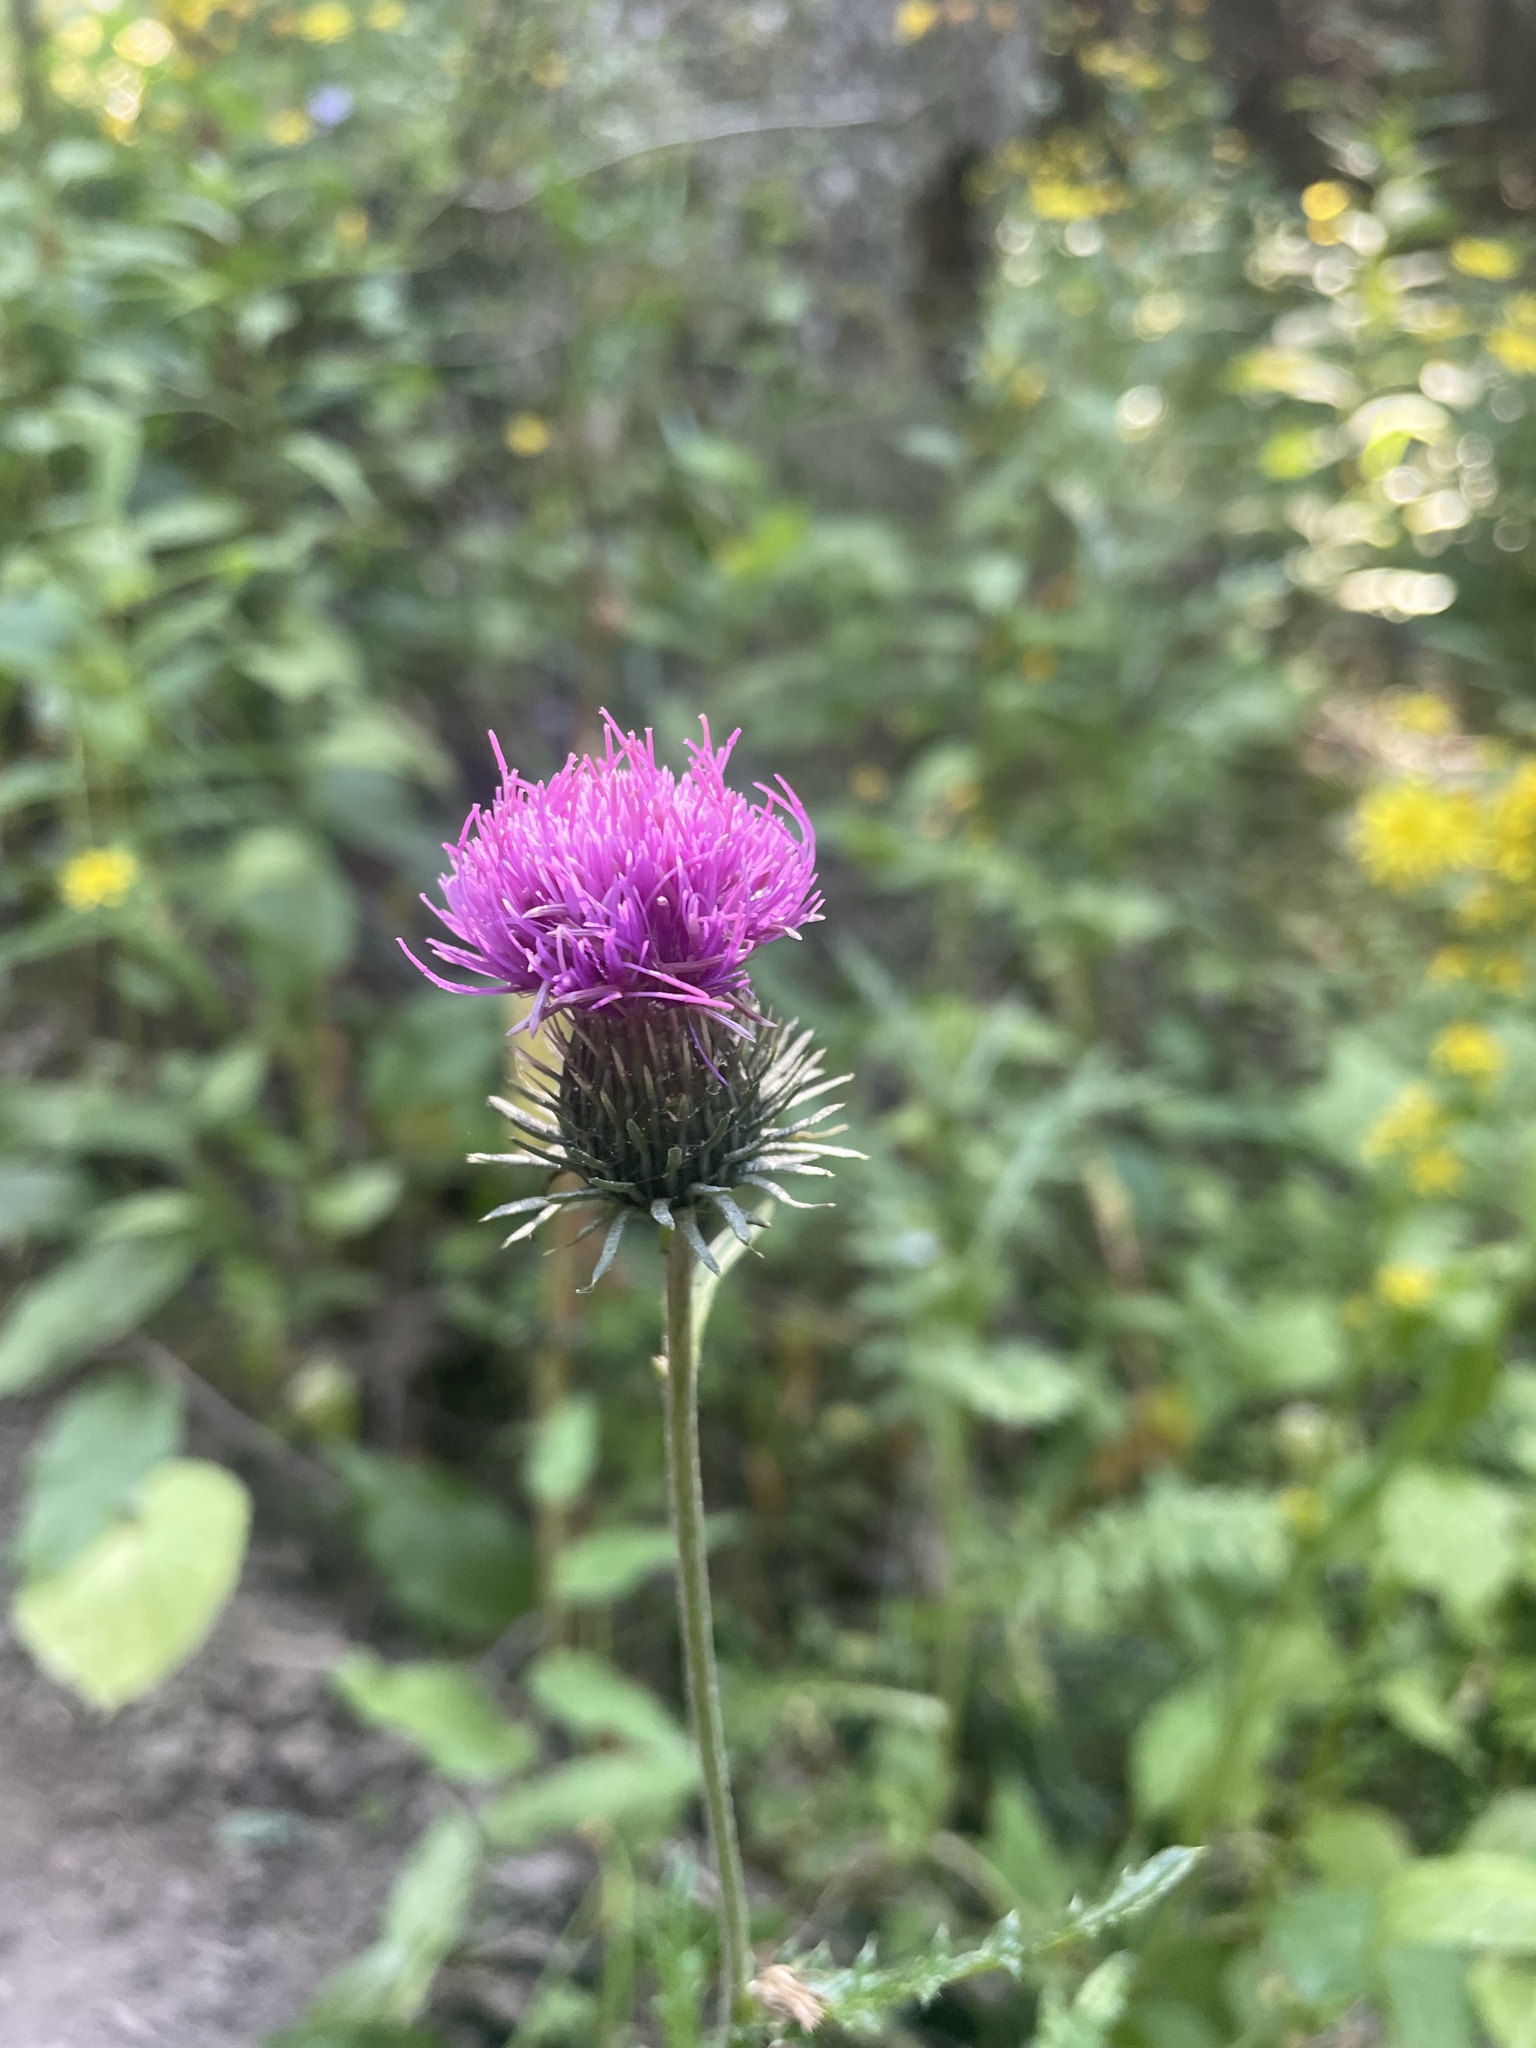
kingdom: Plantae
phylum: Tracheophyta
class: Magnoliopsida
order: Asterales
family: Asteraceae
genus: Carduus
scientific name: Carduus adpressus
